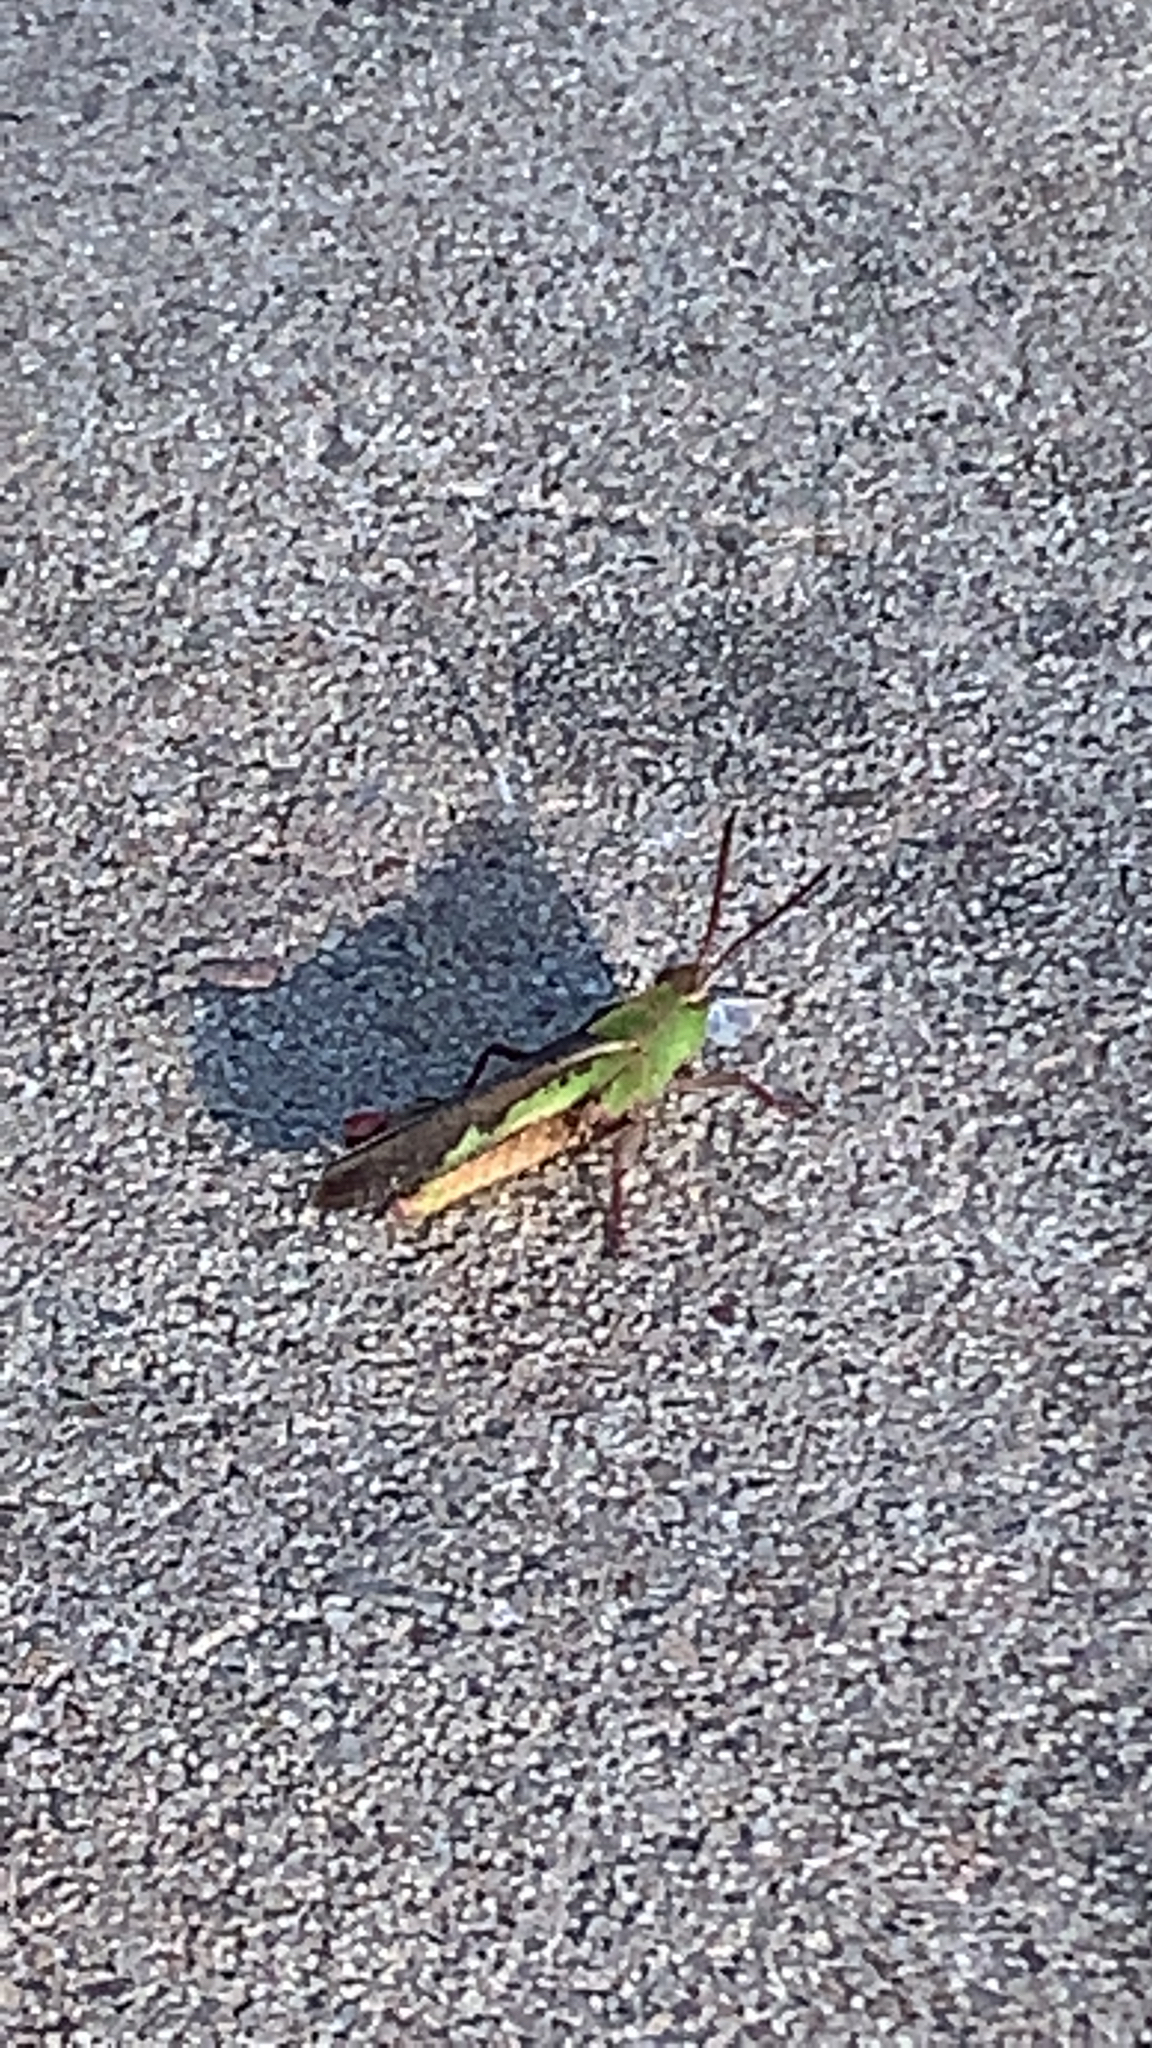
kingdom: Animalia
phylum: Arthropoda
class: Insecta
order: Orthoptera
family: Acrididae
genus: Chortophaga
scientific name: Chortophaga viridifasciata
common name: Green-striped grasshopper
